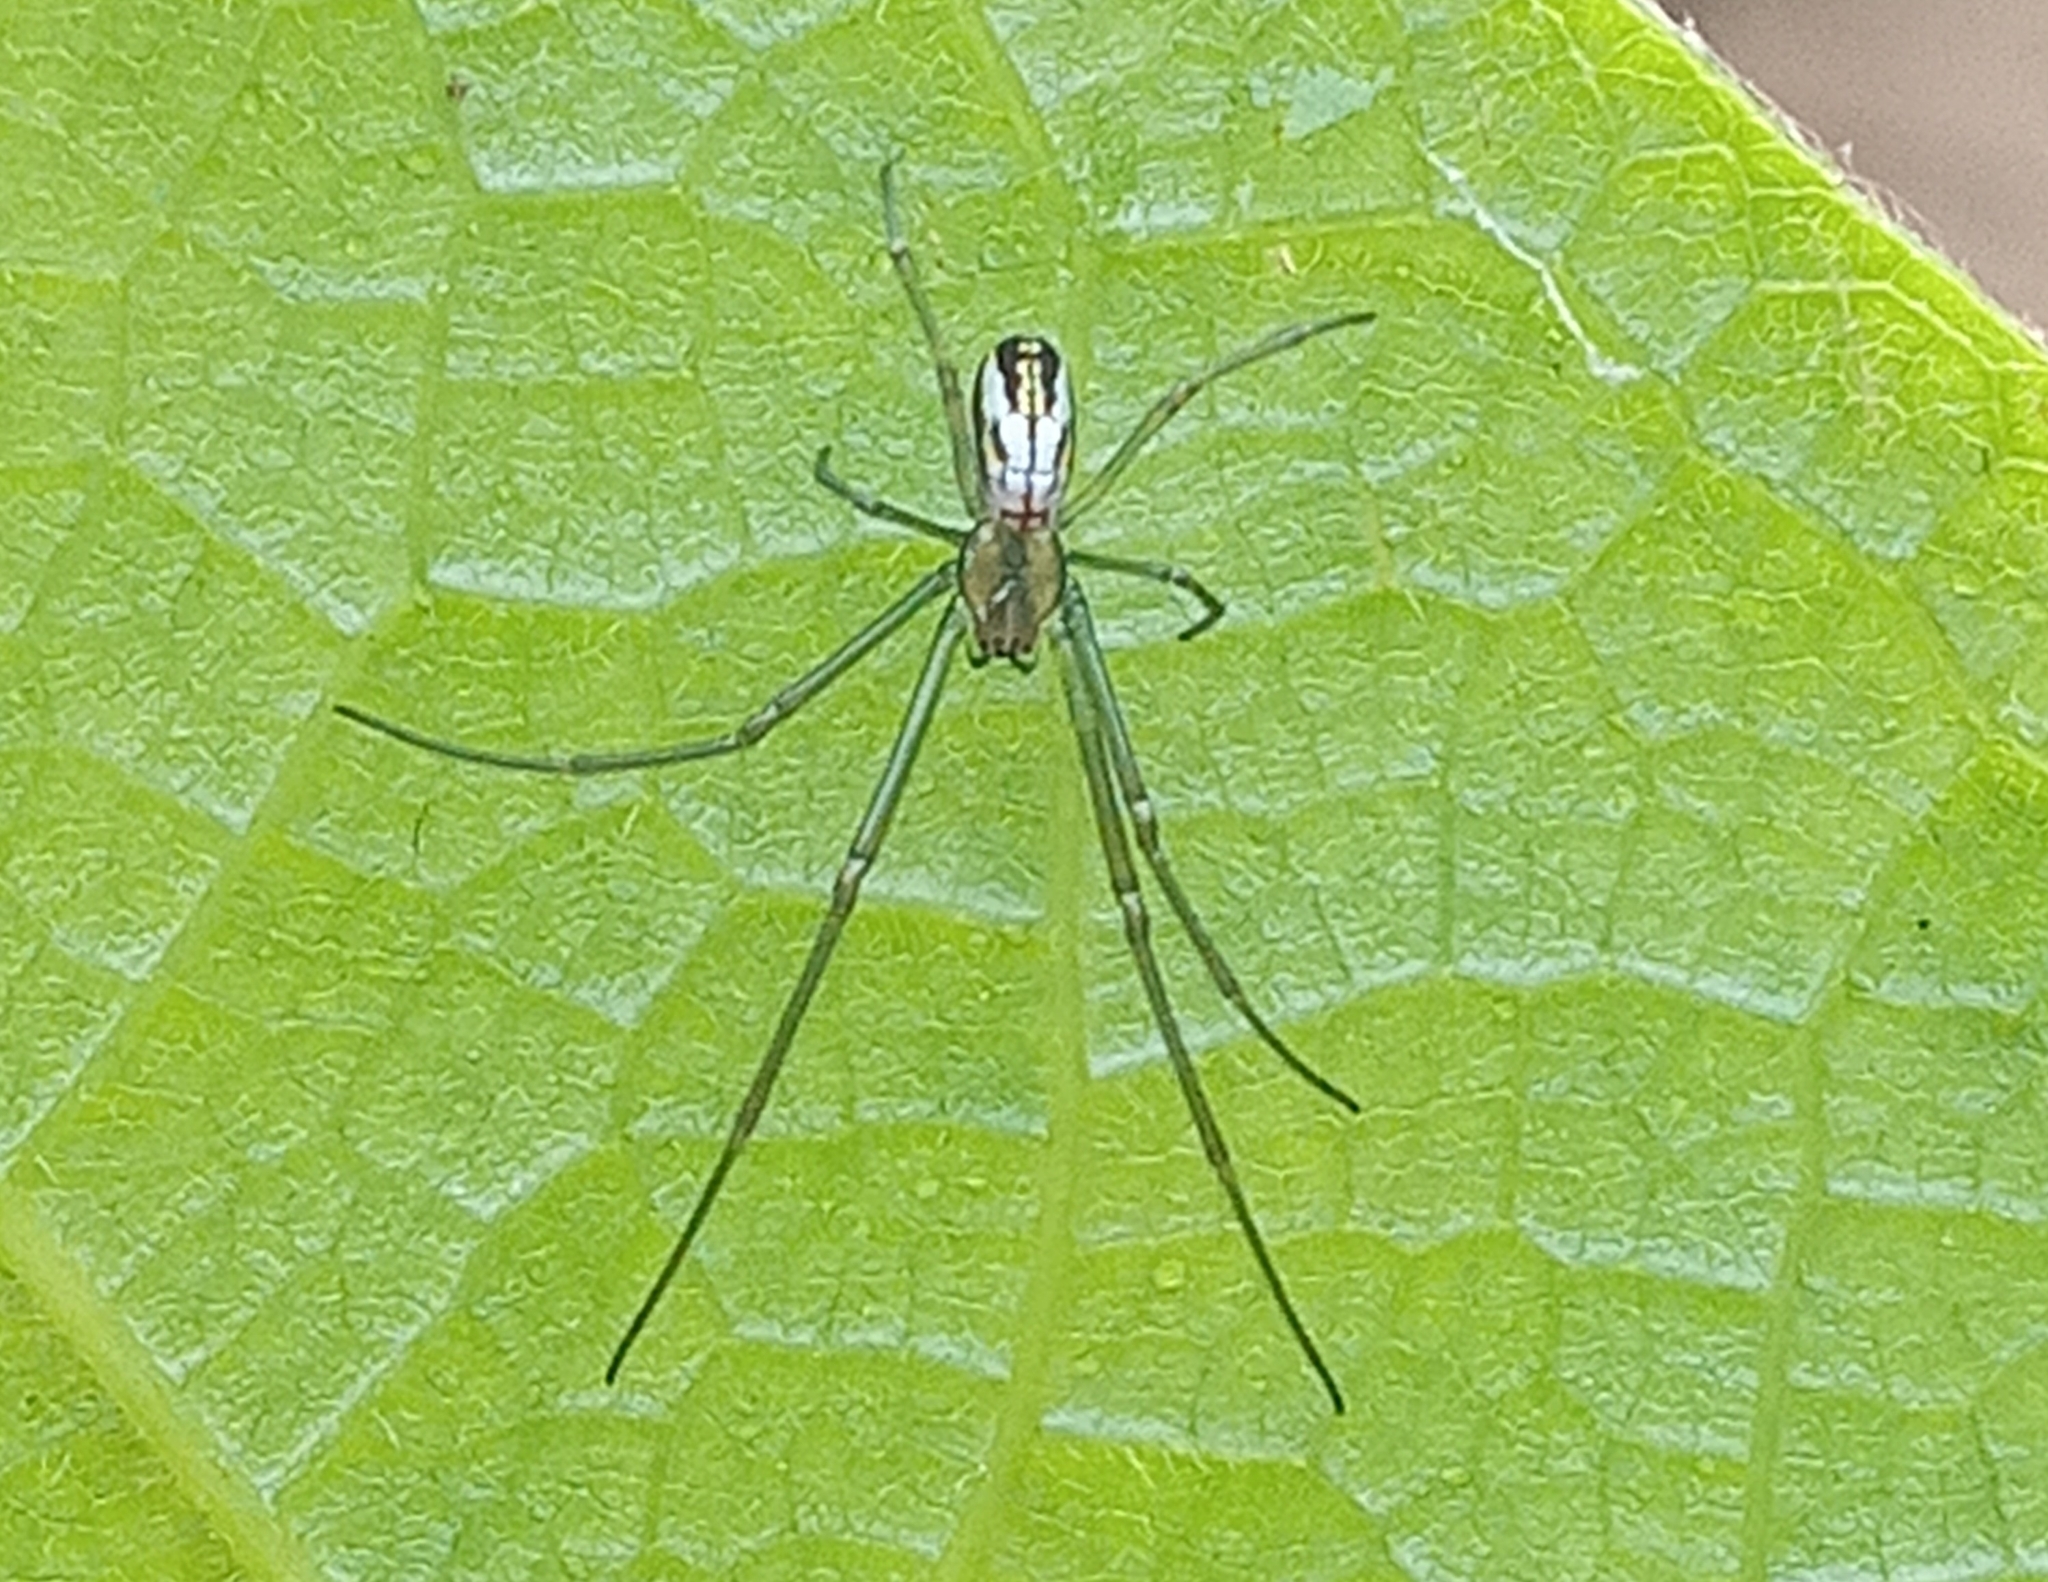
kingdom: Animalia
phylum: Arthropoda
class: Arachnida
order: Araneae
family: Tetragnathidae
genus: Leucauge
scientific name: Leucauge argyra
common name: Longjawed orb weavers
